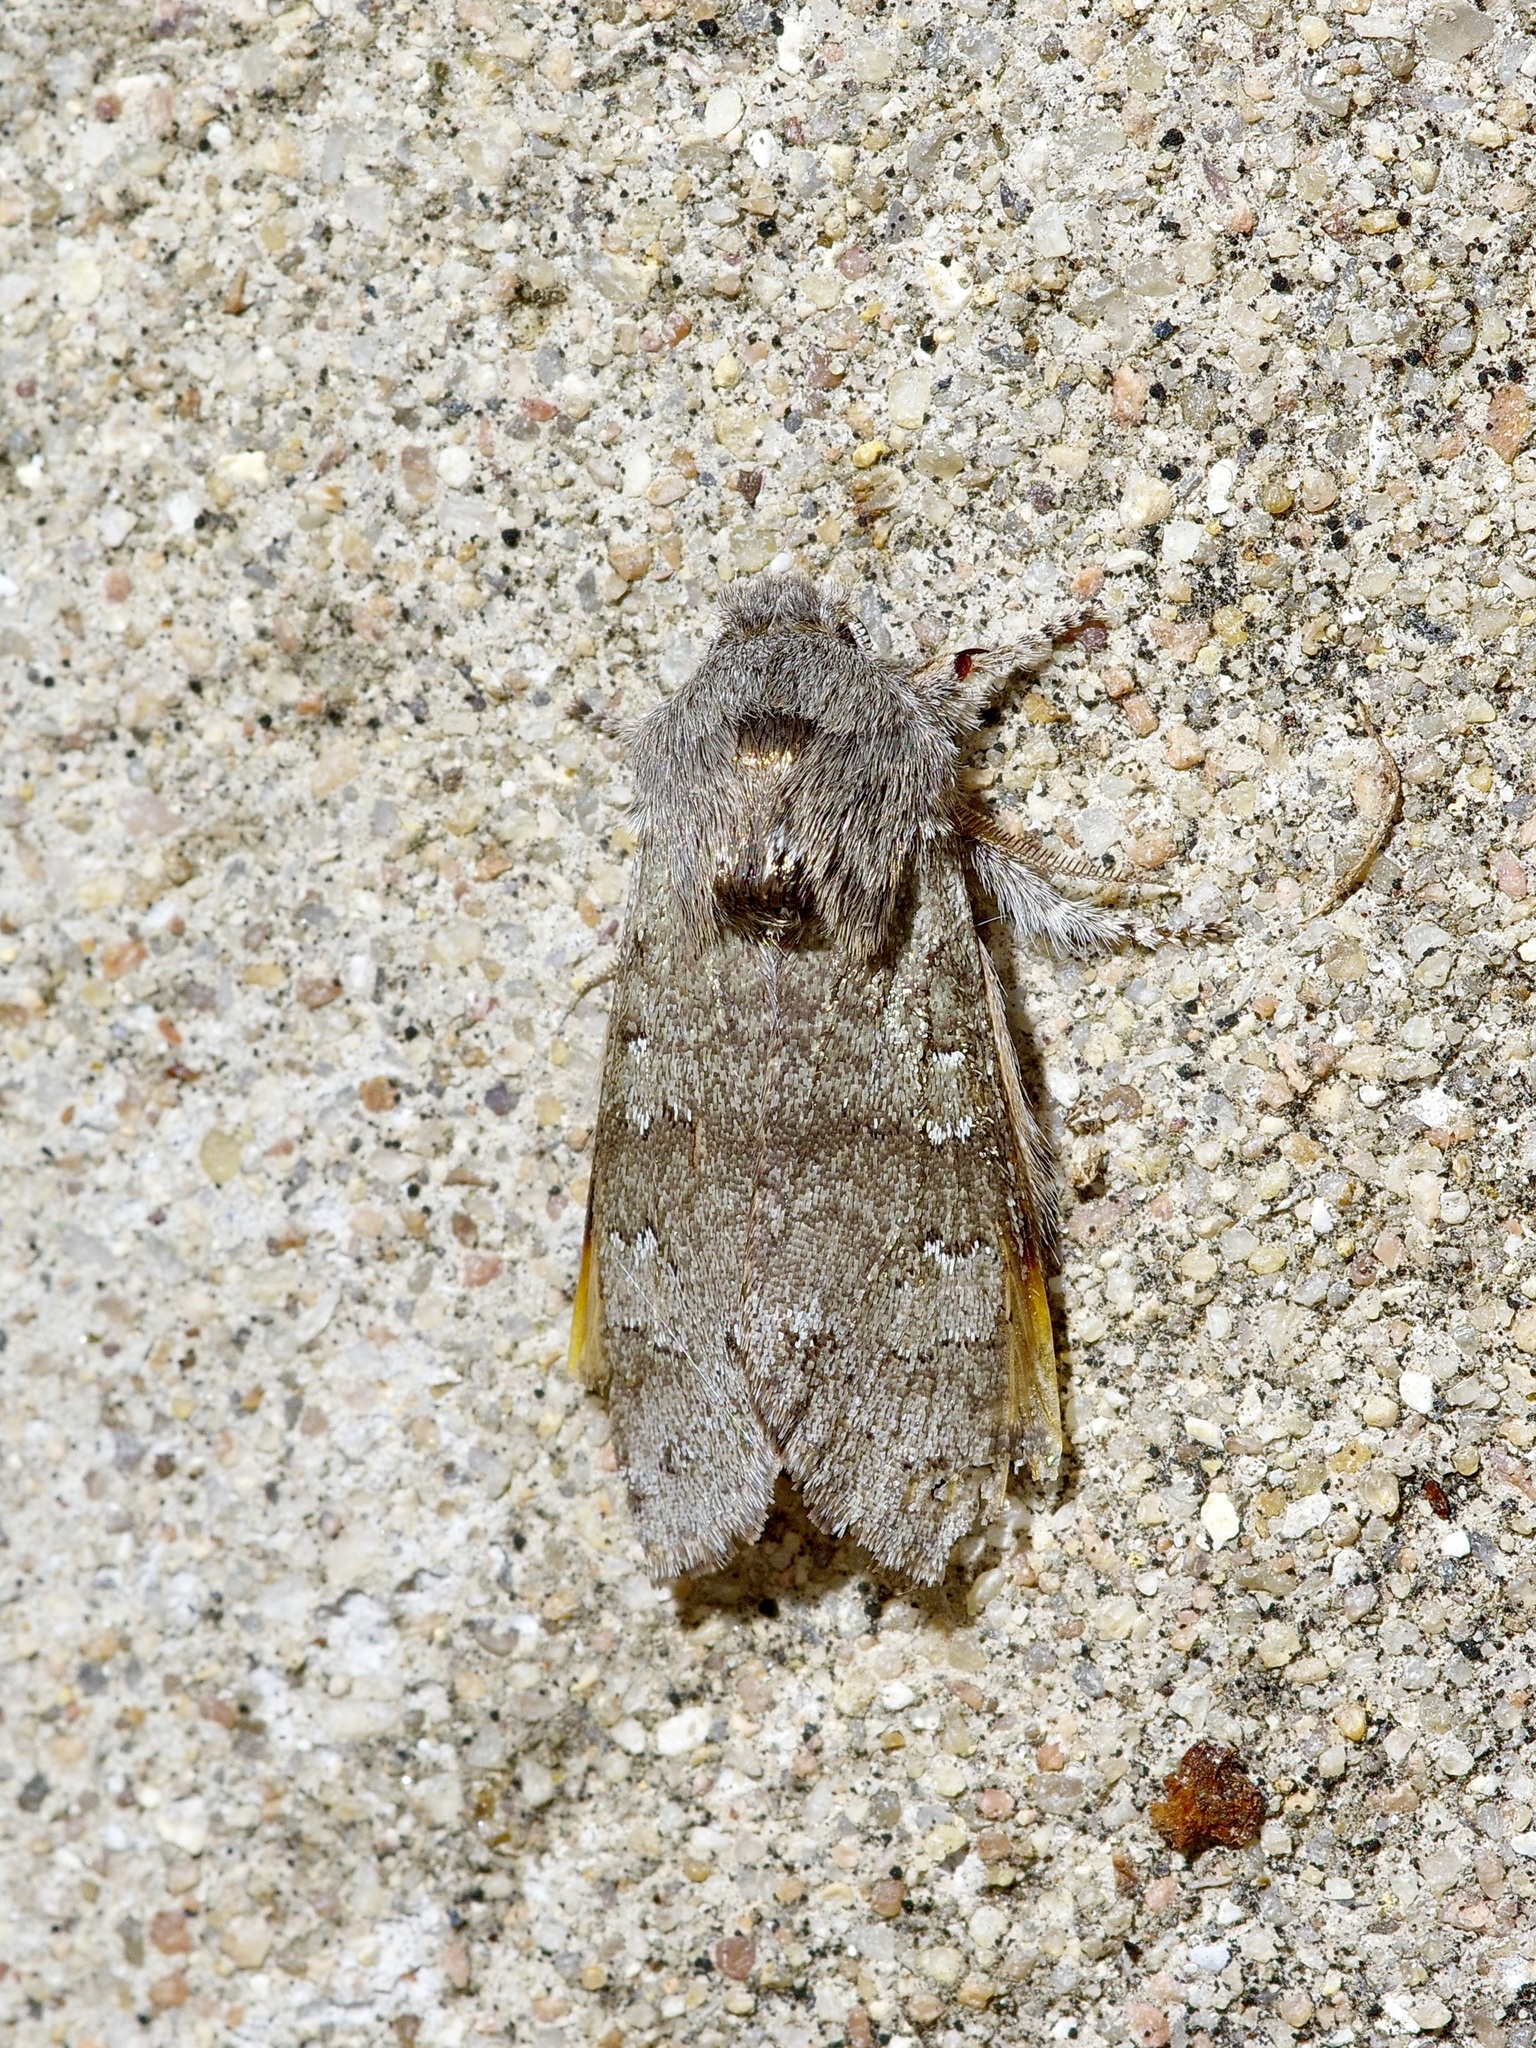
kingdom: Animalia
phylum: Arthropoda
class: Insecta
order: Lepidoptera
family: Noctuidae
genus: Psaphida
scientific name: Psaphida rolandi
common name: Roland's sallow
